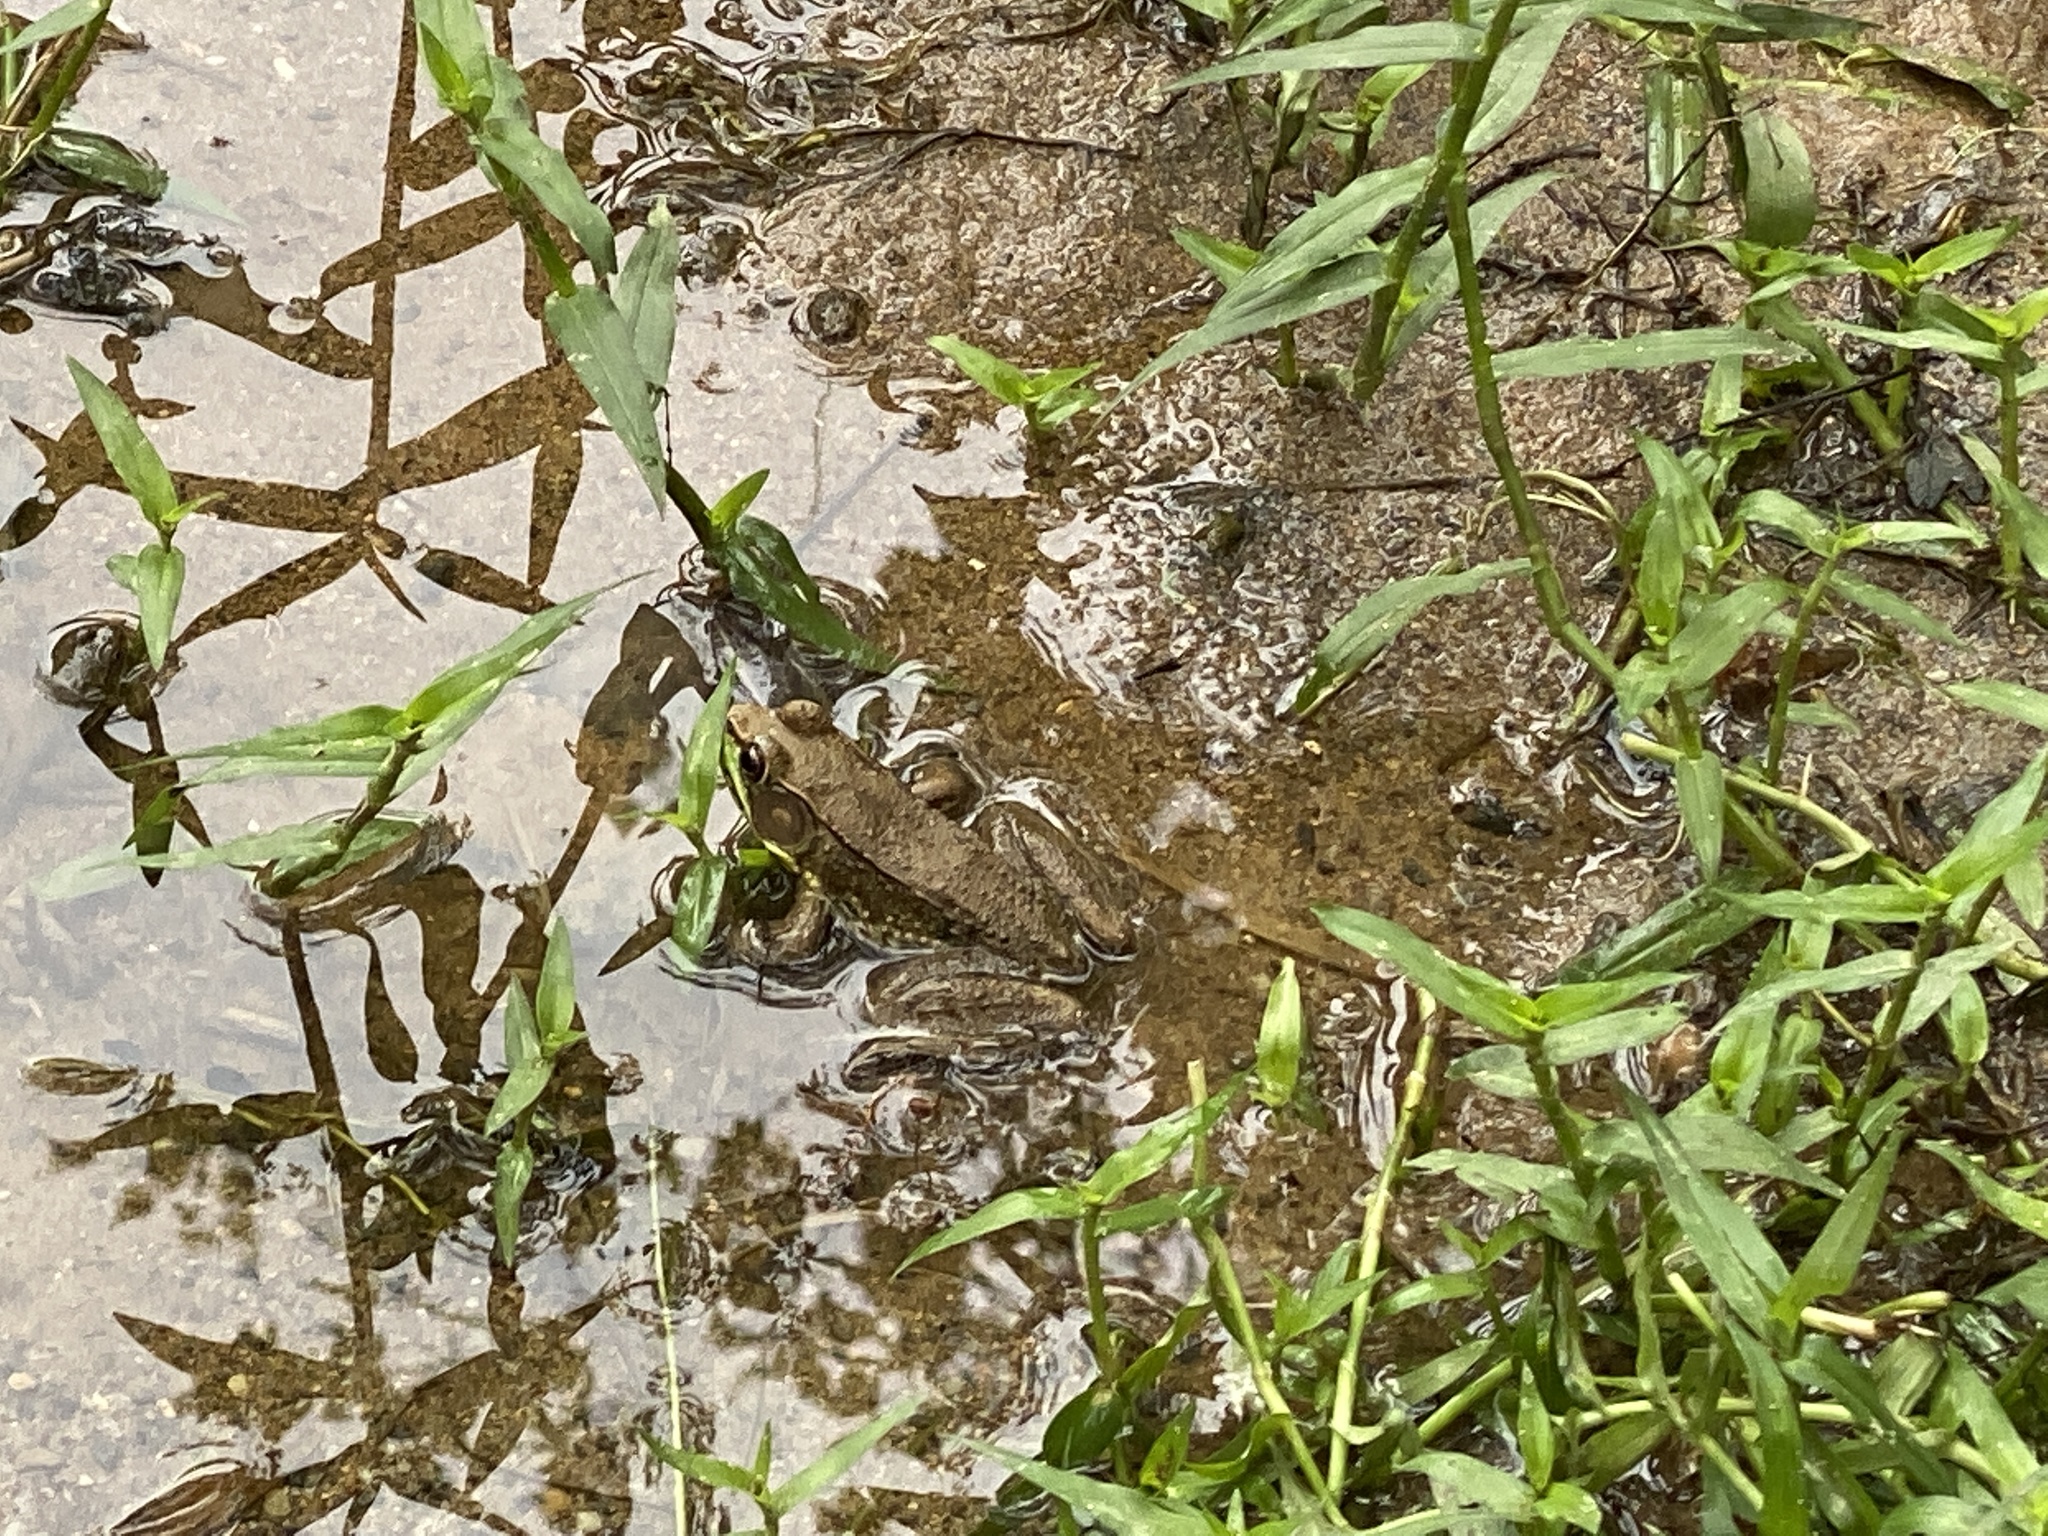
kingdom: Animalia
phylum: Chordata
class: Amphibia
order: Anura
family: Ranidae
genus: Lithobates
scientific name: Lithobates clamitans
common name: Green frog
